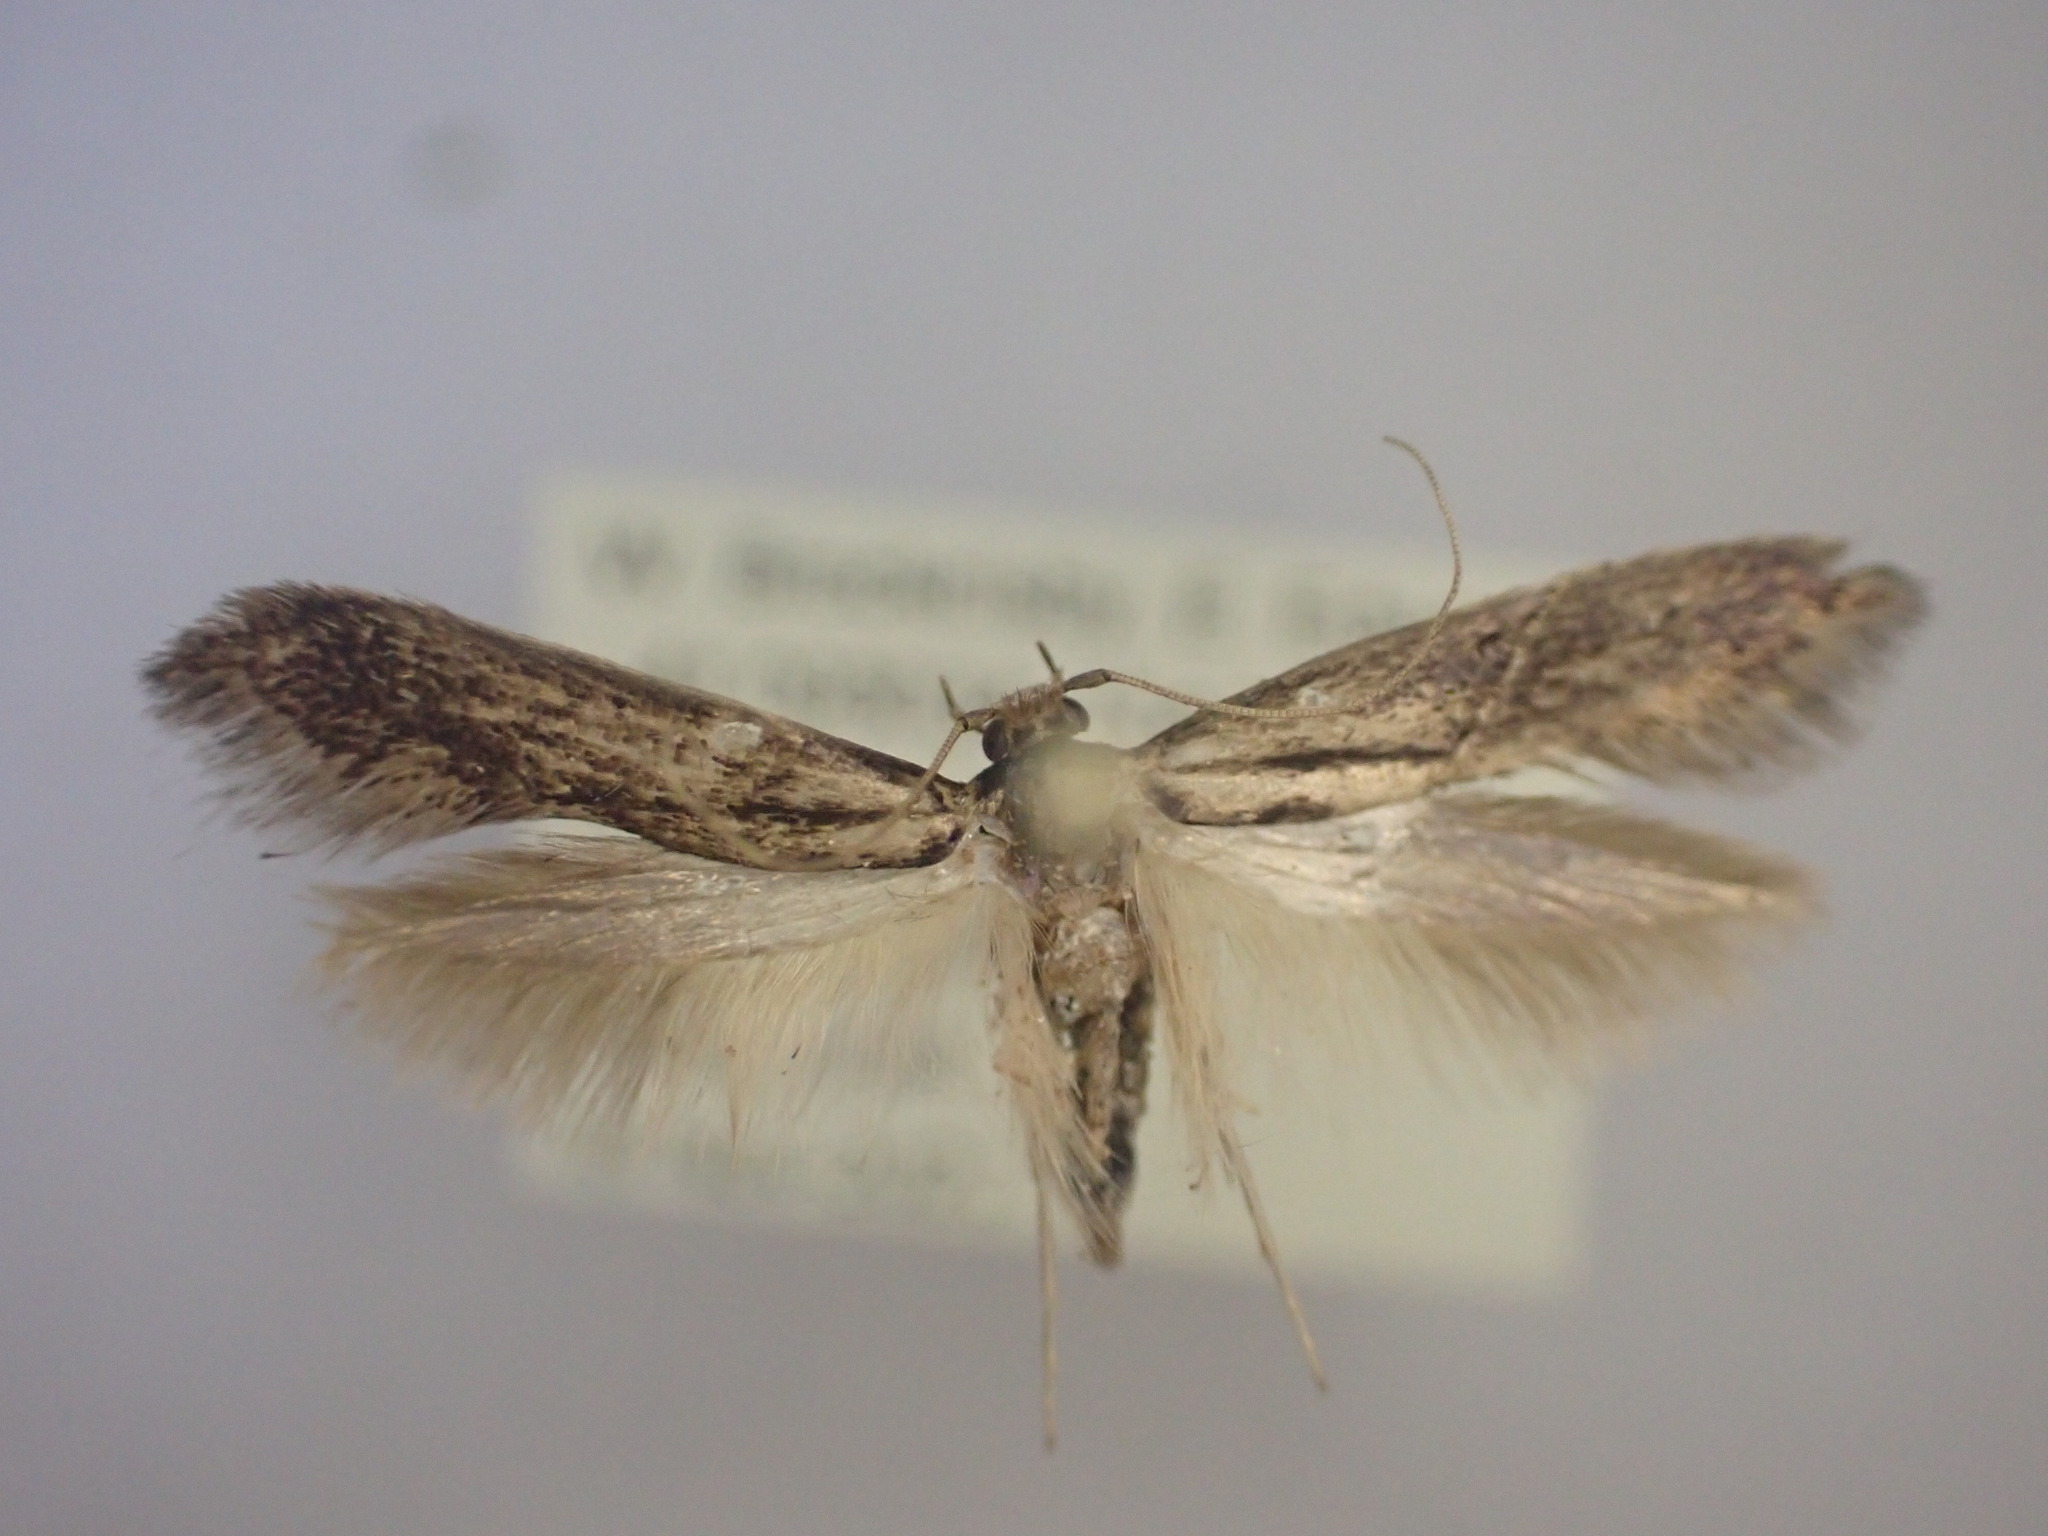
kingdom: Animalia
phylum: Arthropoda
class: Insecta
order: Lepidoptera
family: Tineidae
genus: Opogona
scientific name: Opogona omoscopa
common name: Moth
